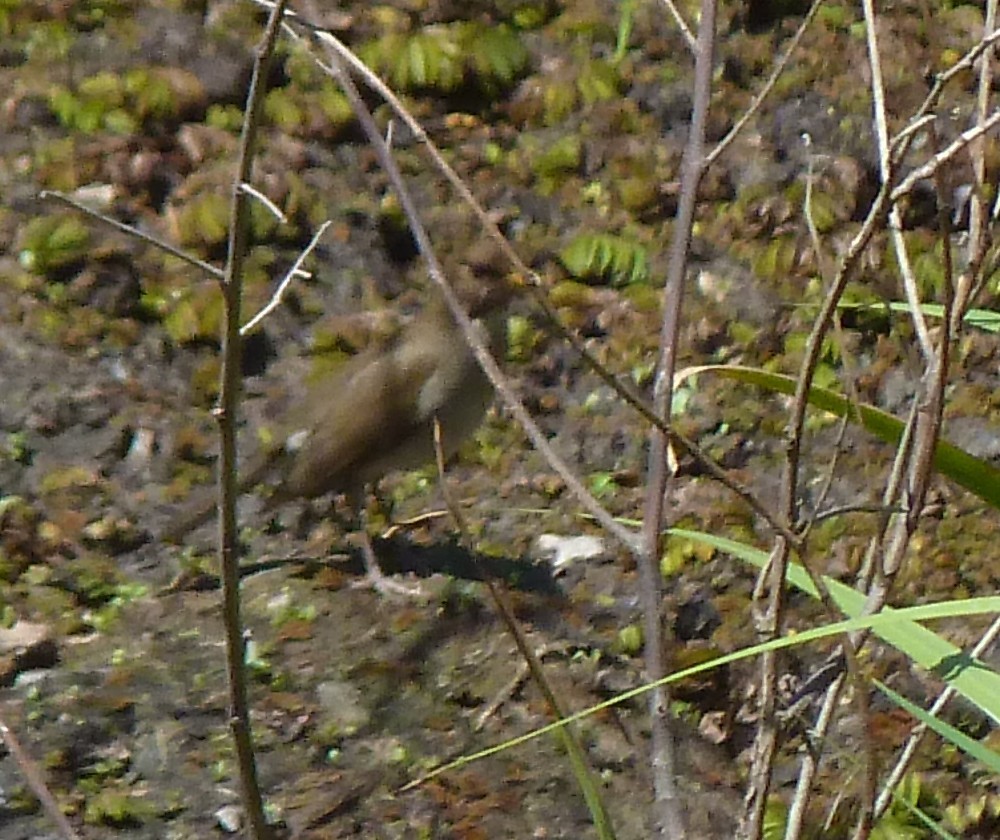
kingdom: Animalia
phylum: Chordata
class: Aves
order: Passeriformes
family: Turdidae
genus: Turdus
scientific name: Turdus amaurochalinus
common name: Creamy-bellied thrush
